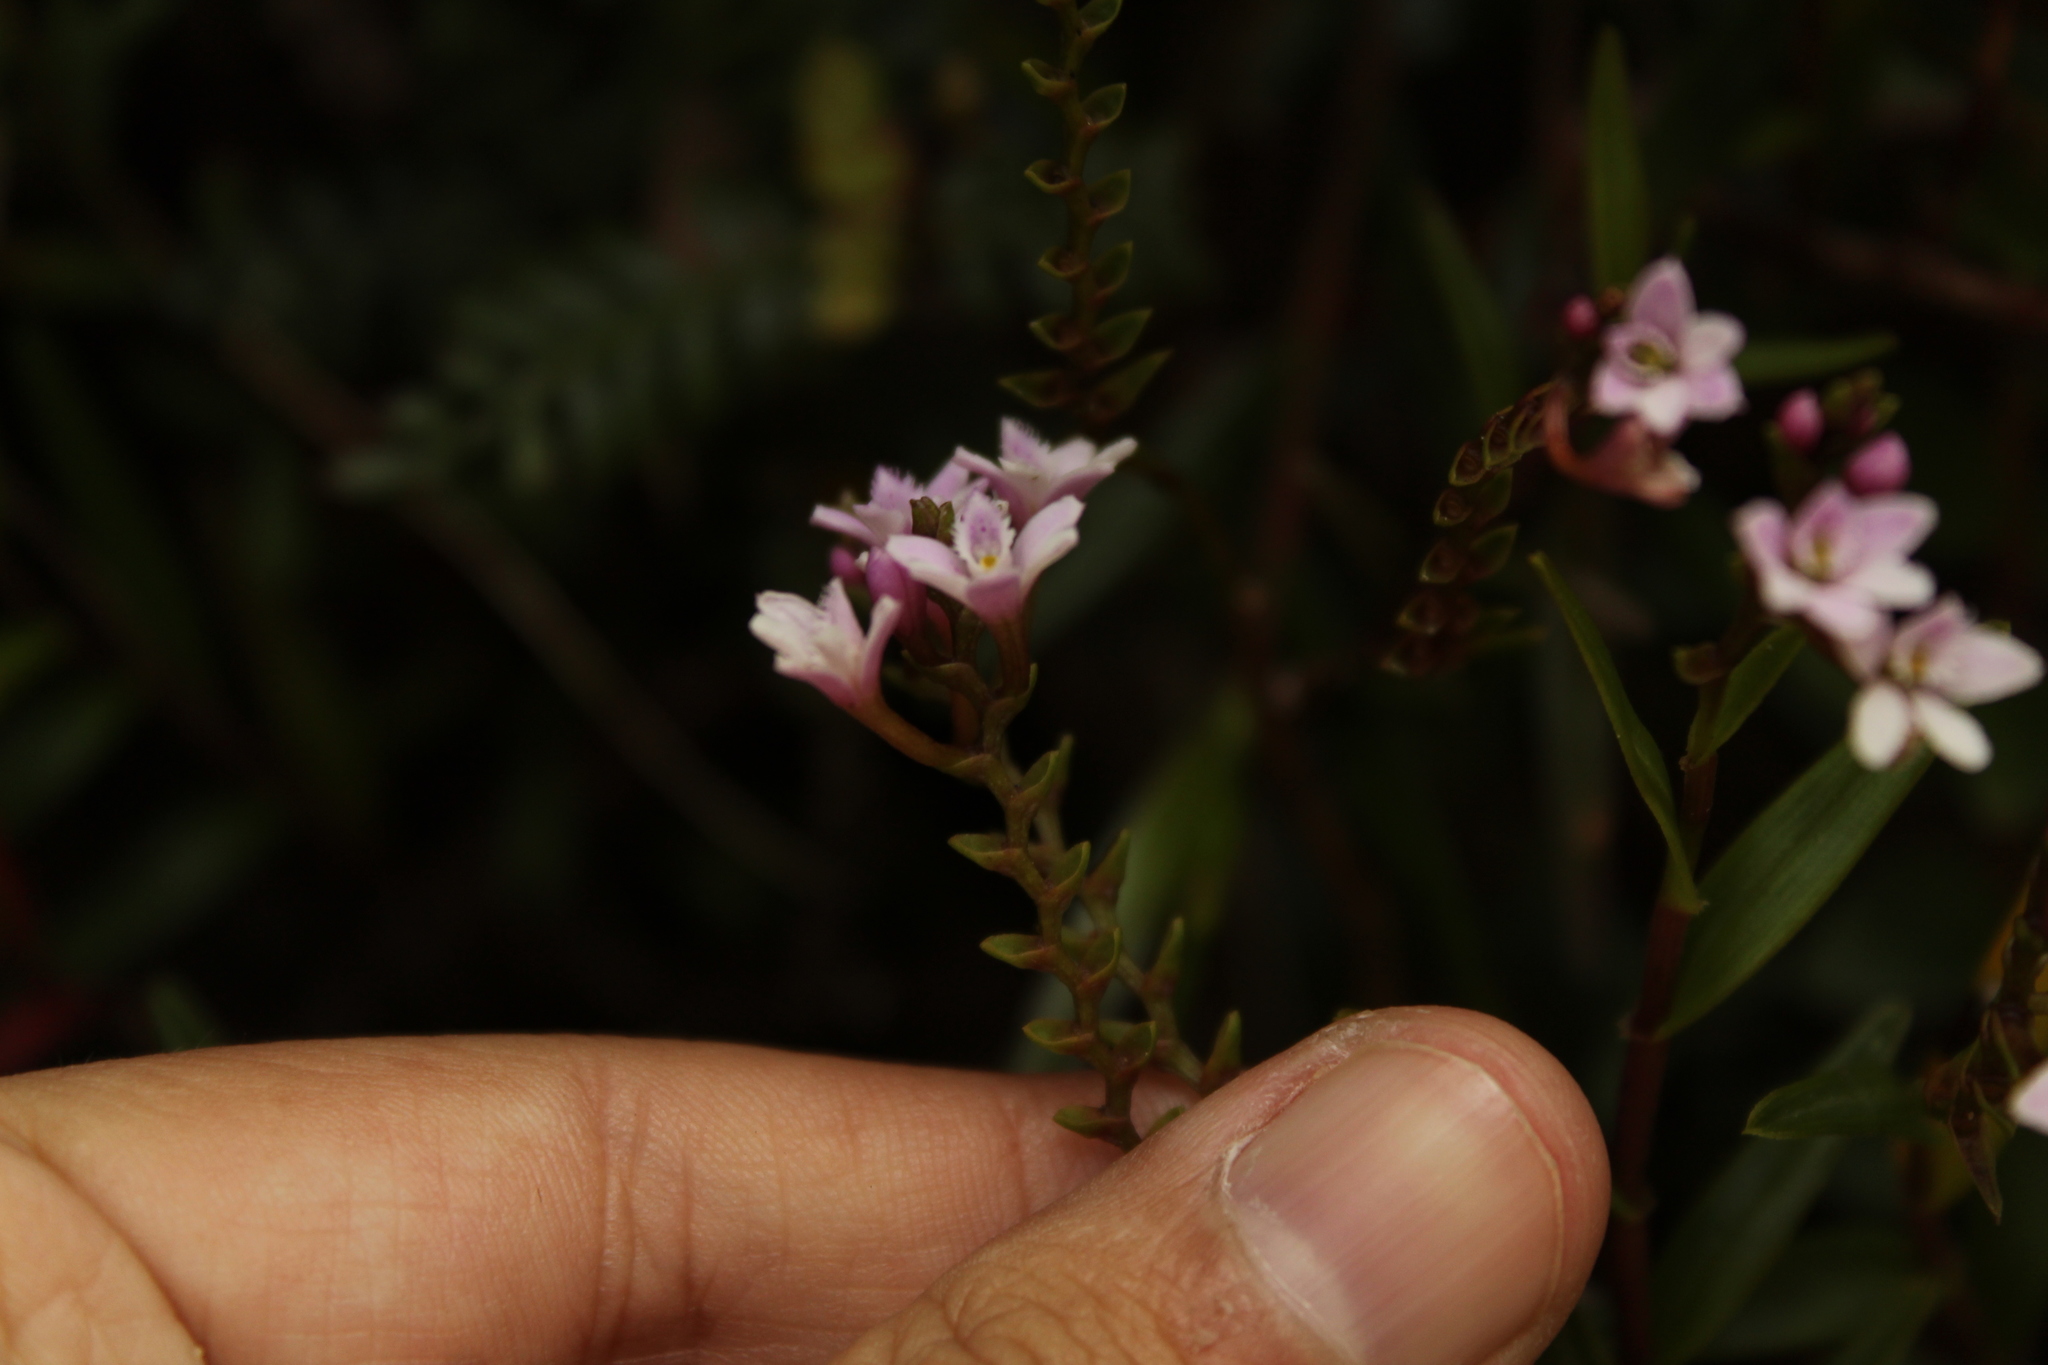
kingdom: Plantae
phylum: Tracheophyta
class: Liliopsida
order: Asparagales
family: Orchidaceae
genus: Epidendrum
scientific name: Epidendrum fimbriatum
